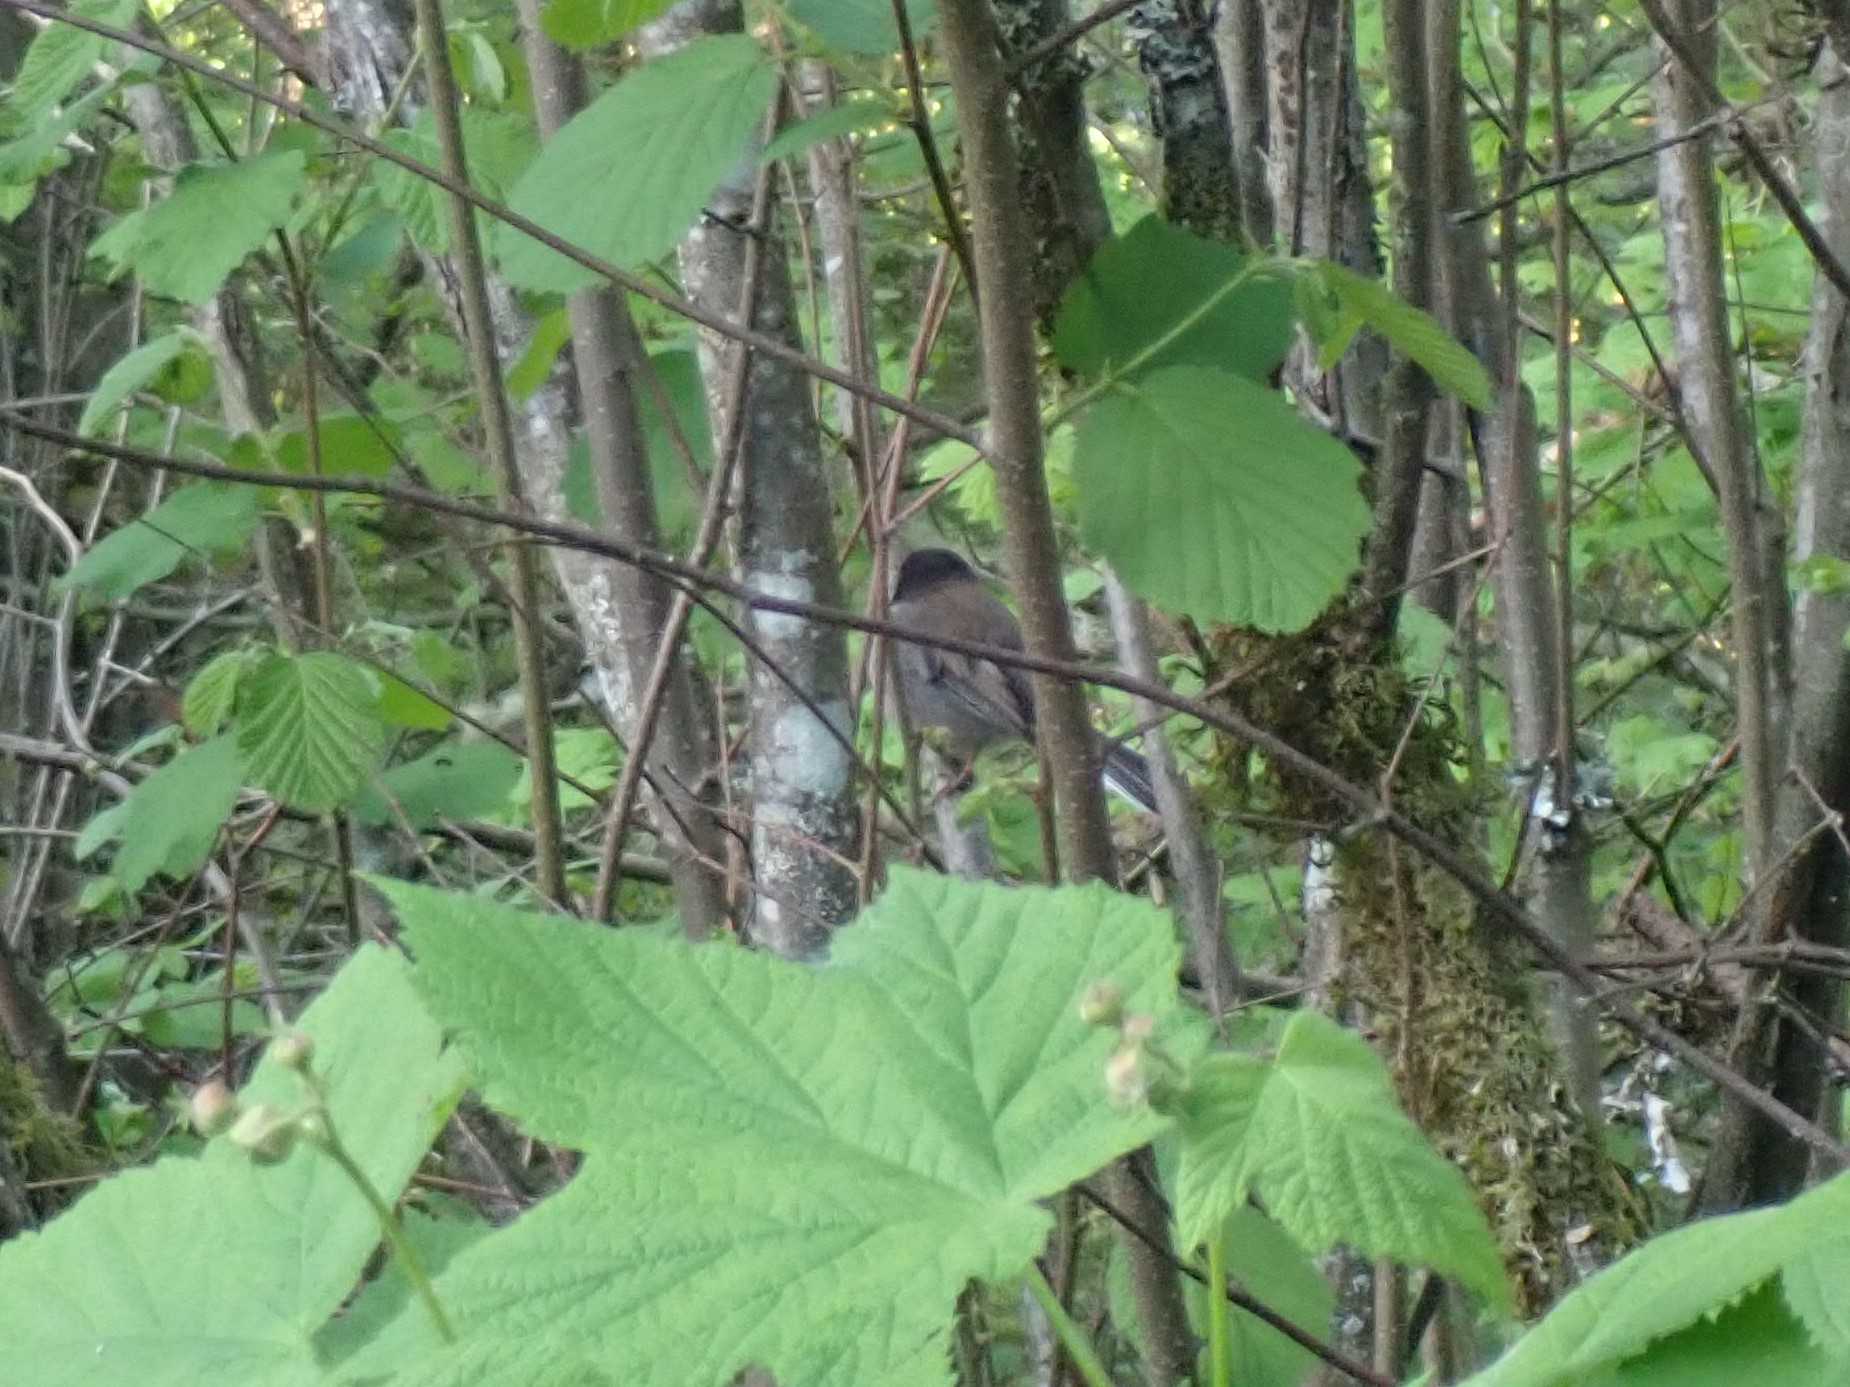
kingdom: Animalia
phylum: Chordata
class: Aves
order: Passeriformes
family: Passerellidae
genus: Junco
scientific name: Junco hyemalis
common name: Dark-eyed junco
